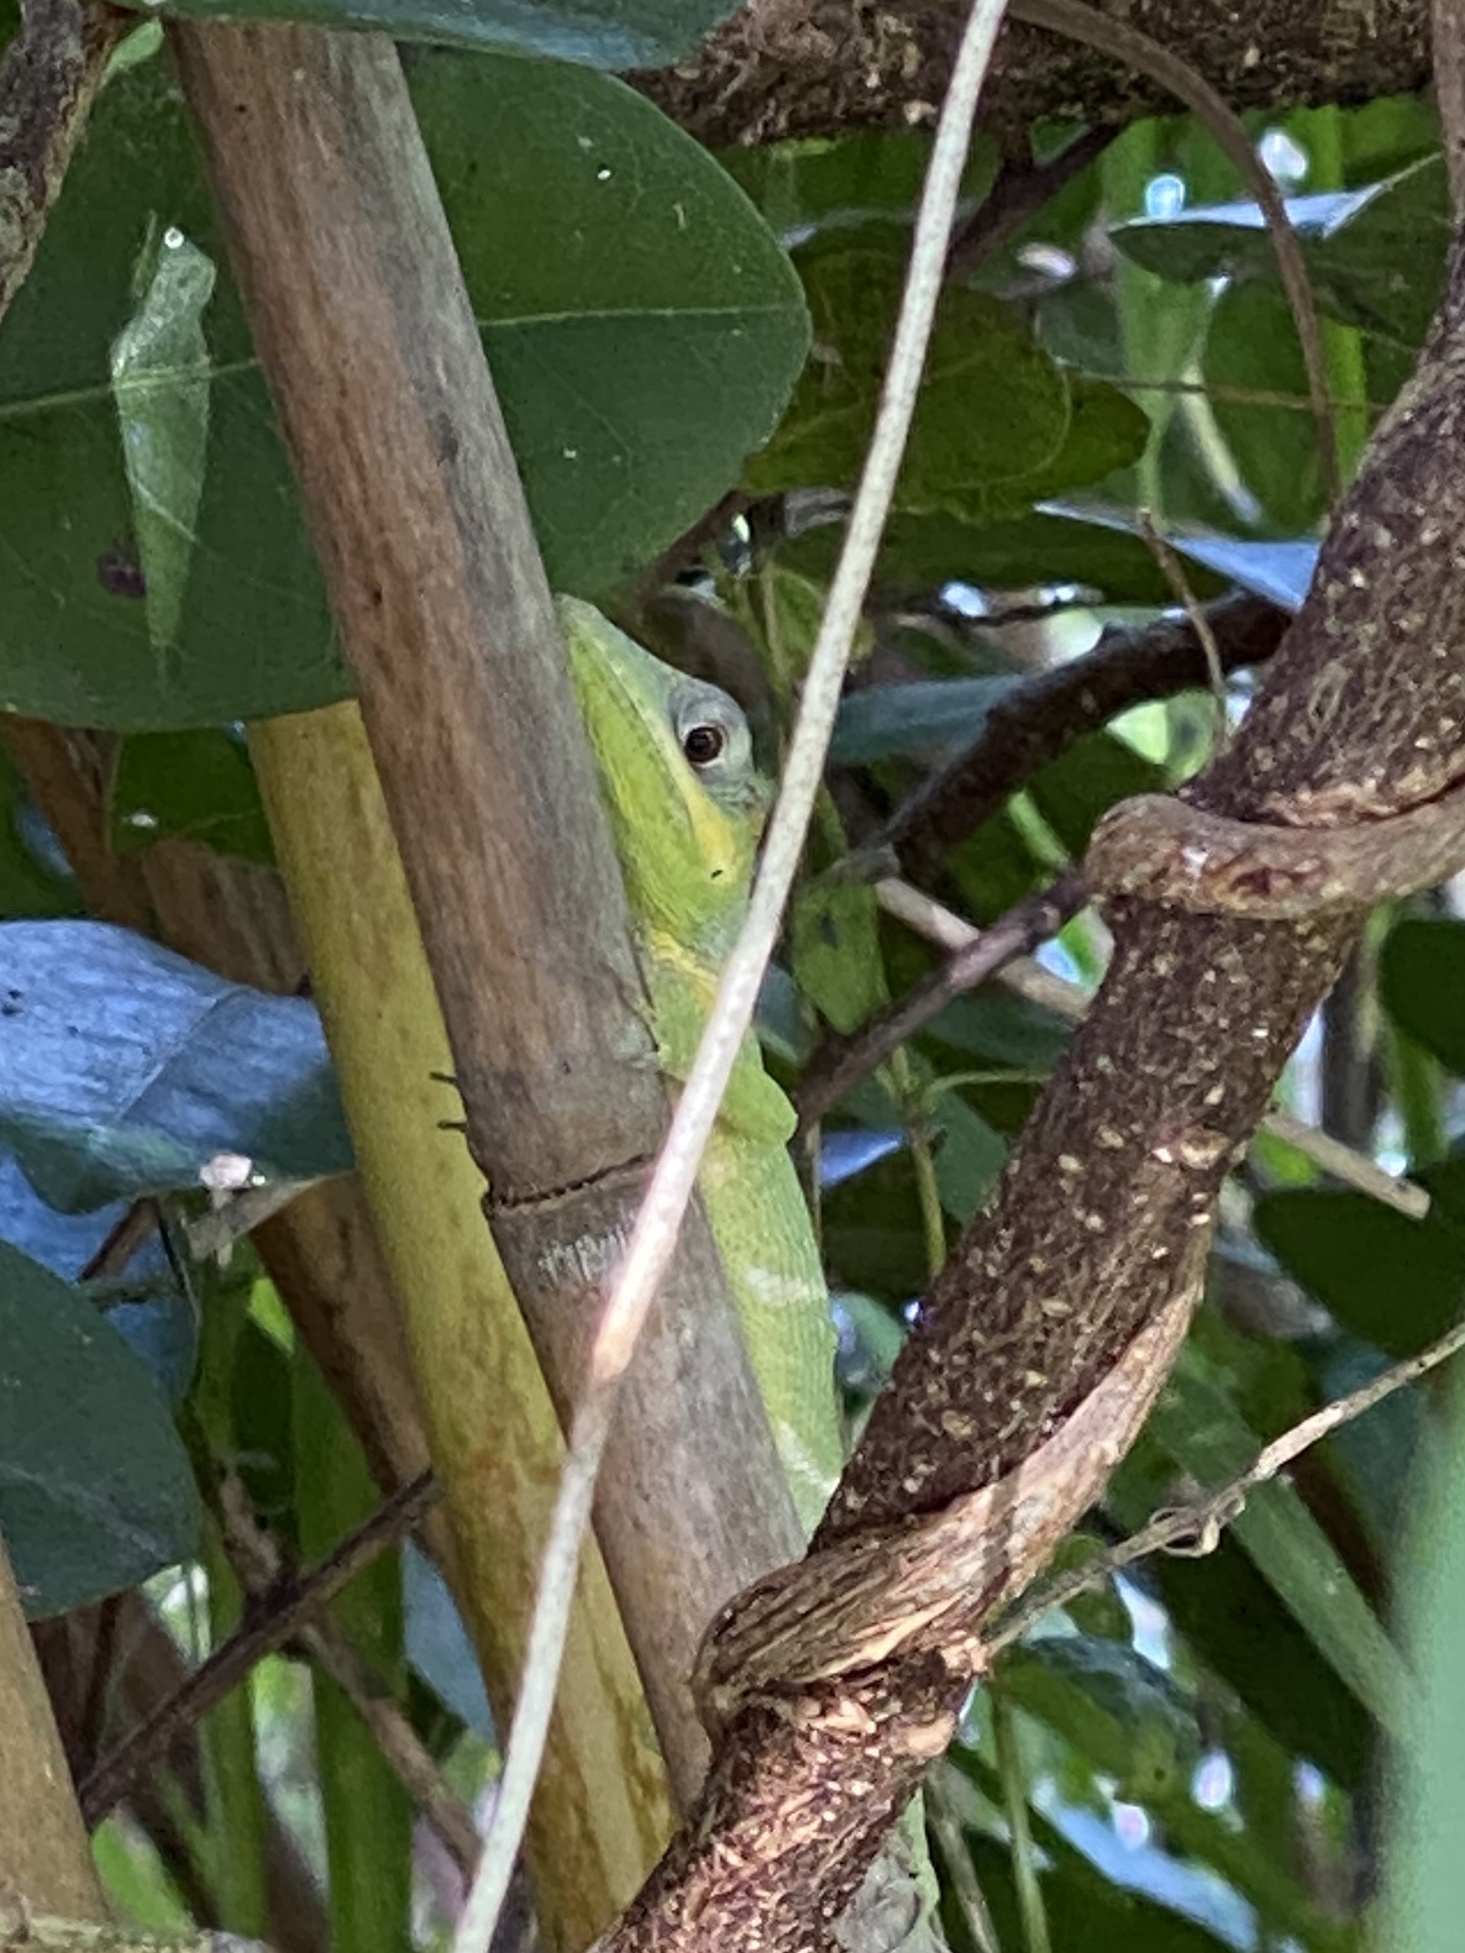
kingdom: Animalia
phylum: Chordata
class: Squamata
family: Dactyloidae
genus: Anolis
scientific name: Anolis equestris
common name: Knight anole
